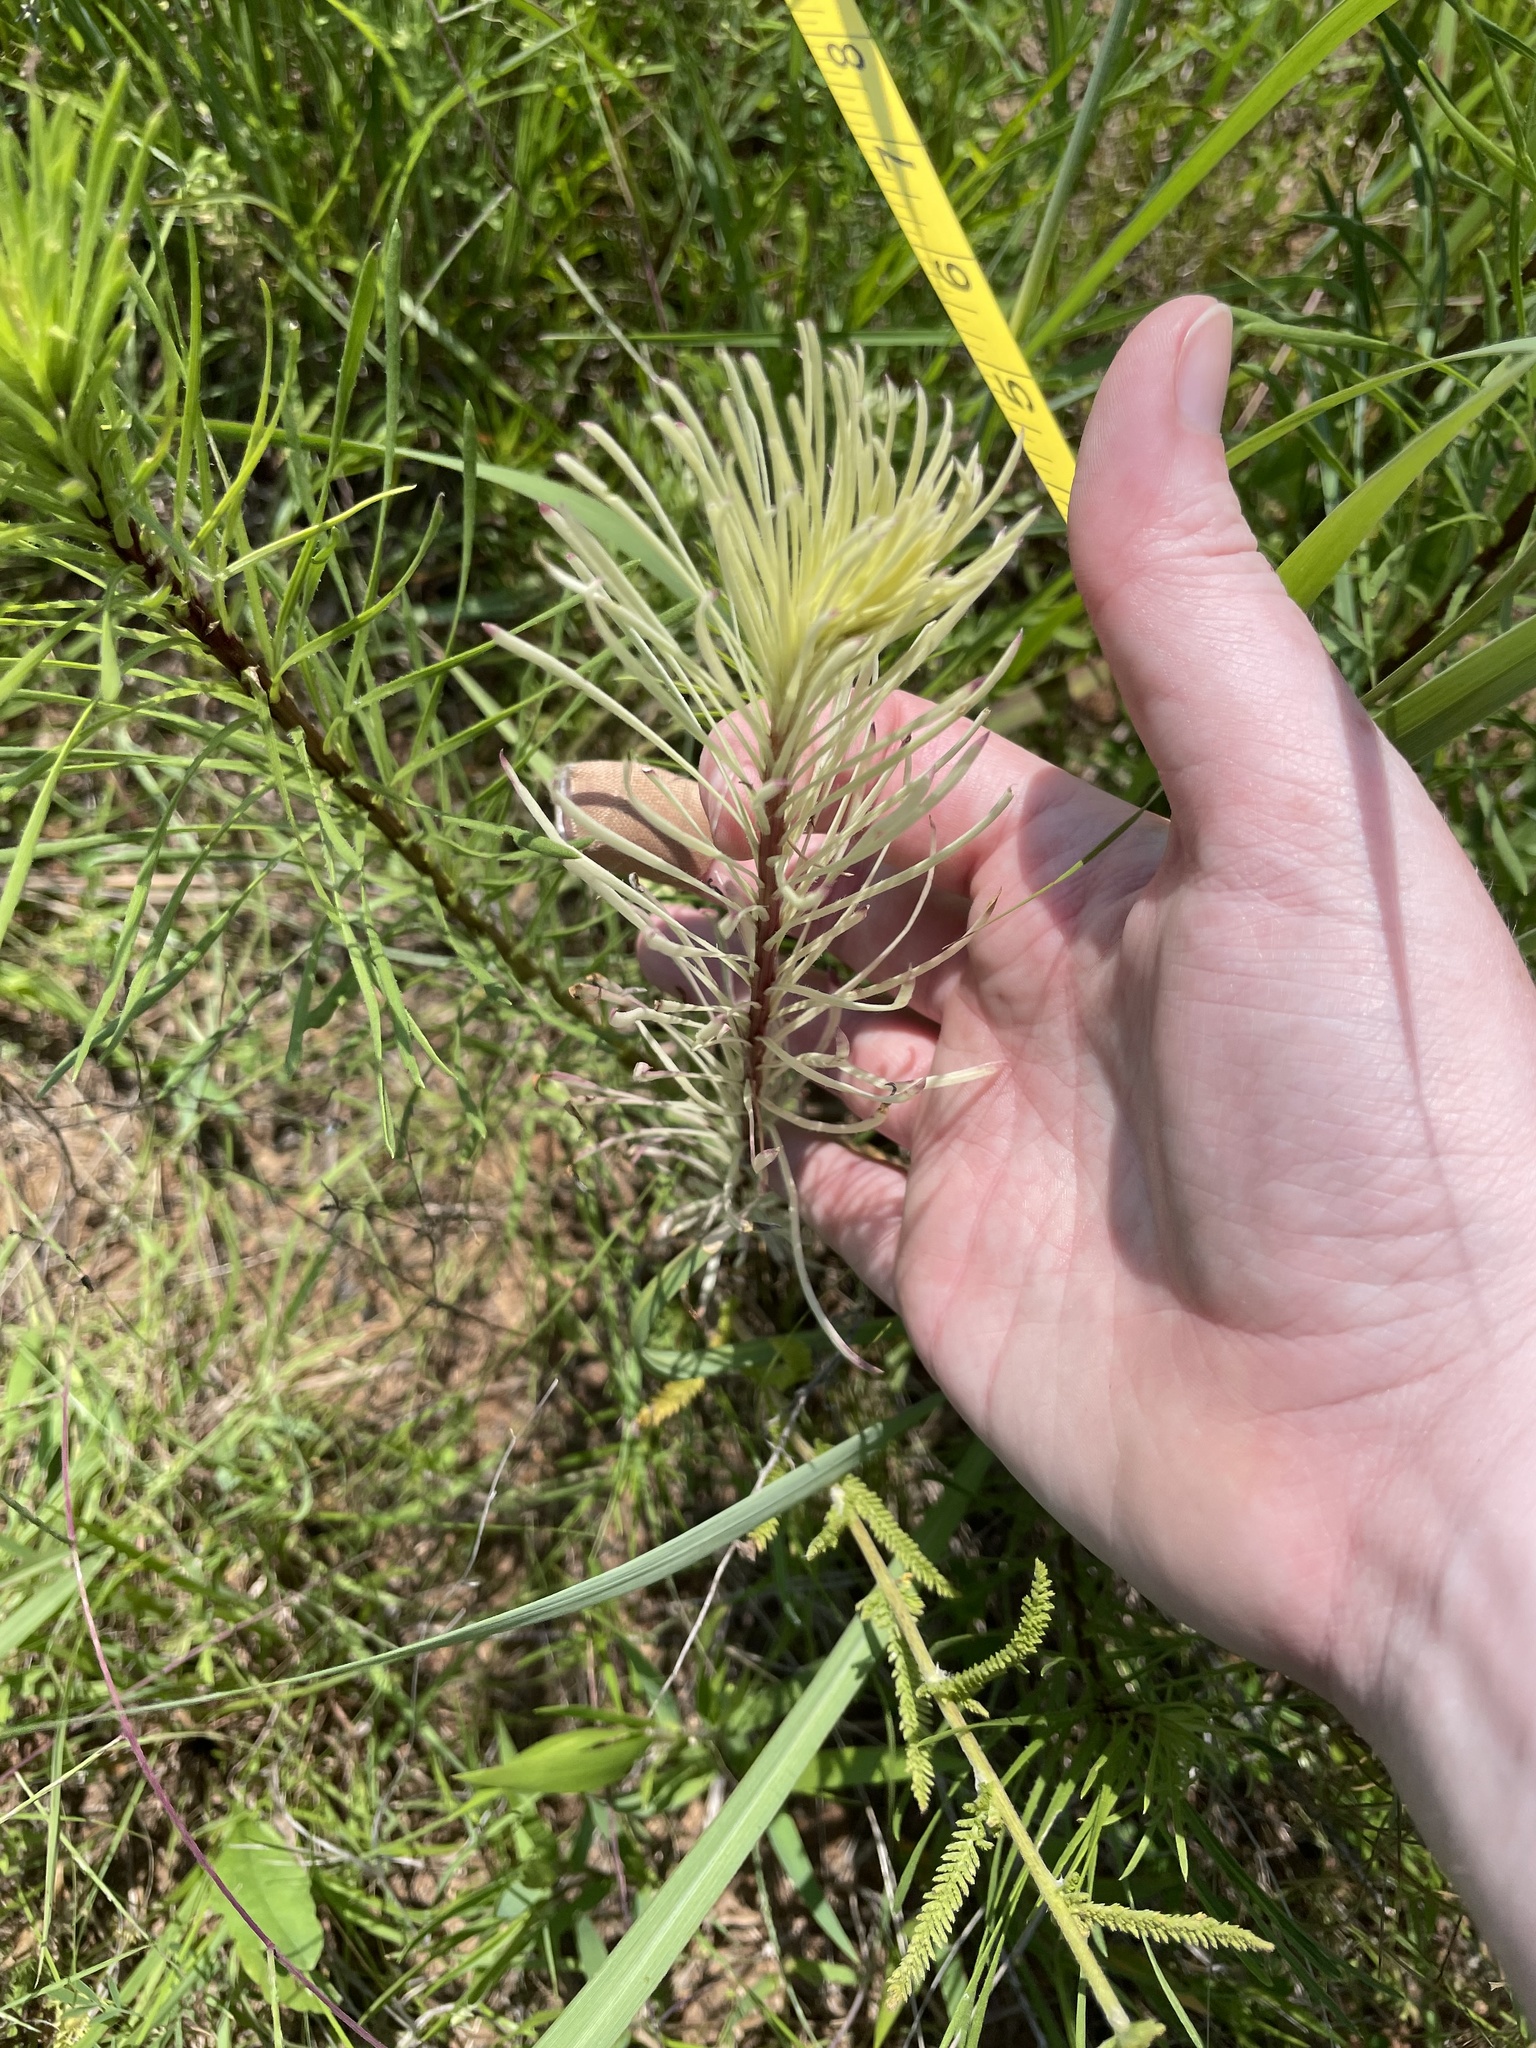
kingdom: Plantae
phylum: Tracheophyta
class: Magnoliopsida
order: Asterales
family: Asteraceae
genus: Liatris
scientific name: Liatris punctata
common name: Dotted gayfeather
